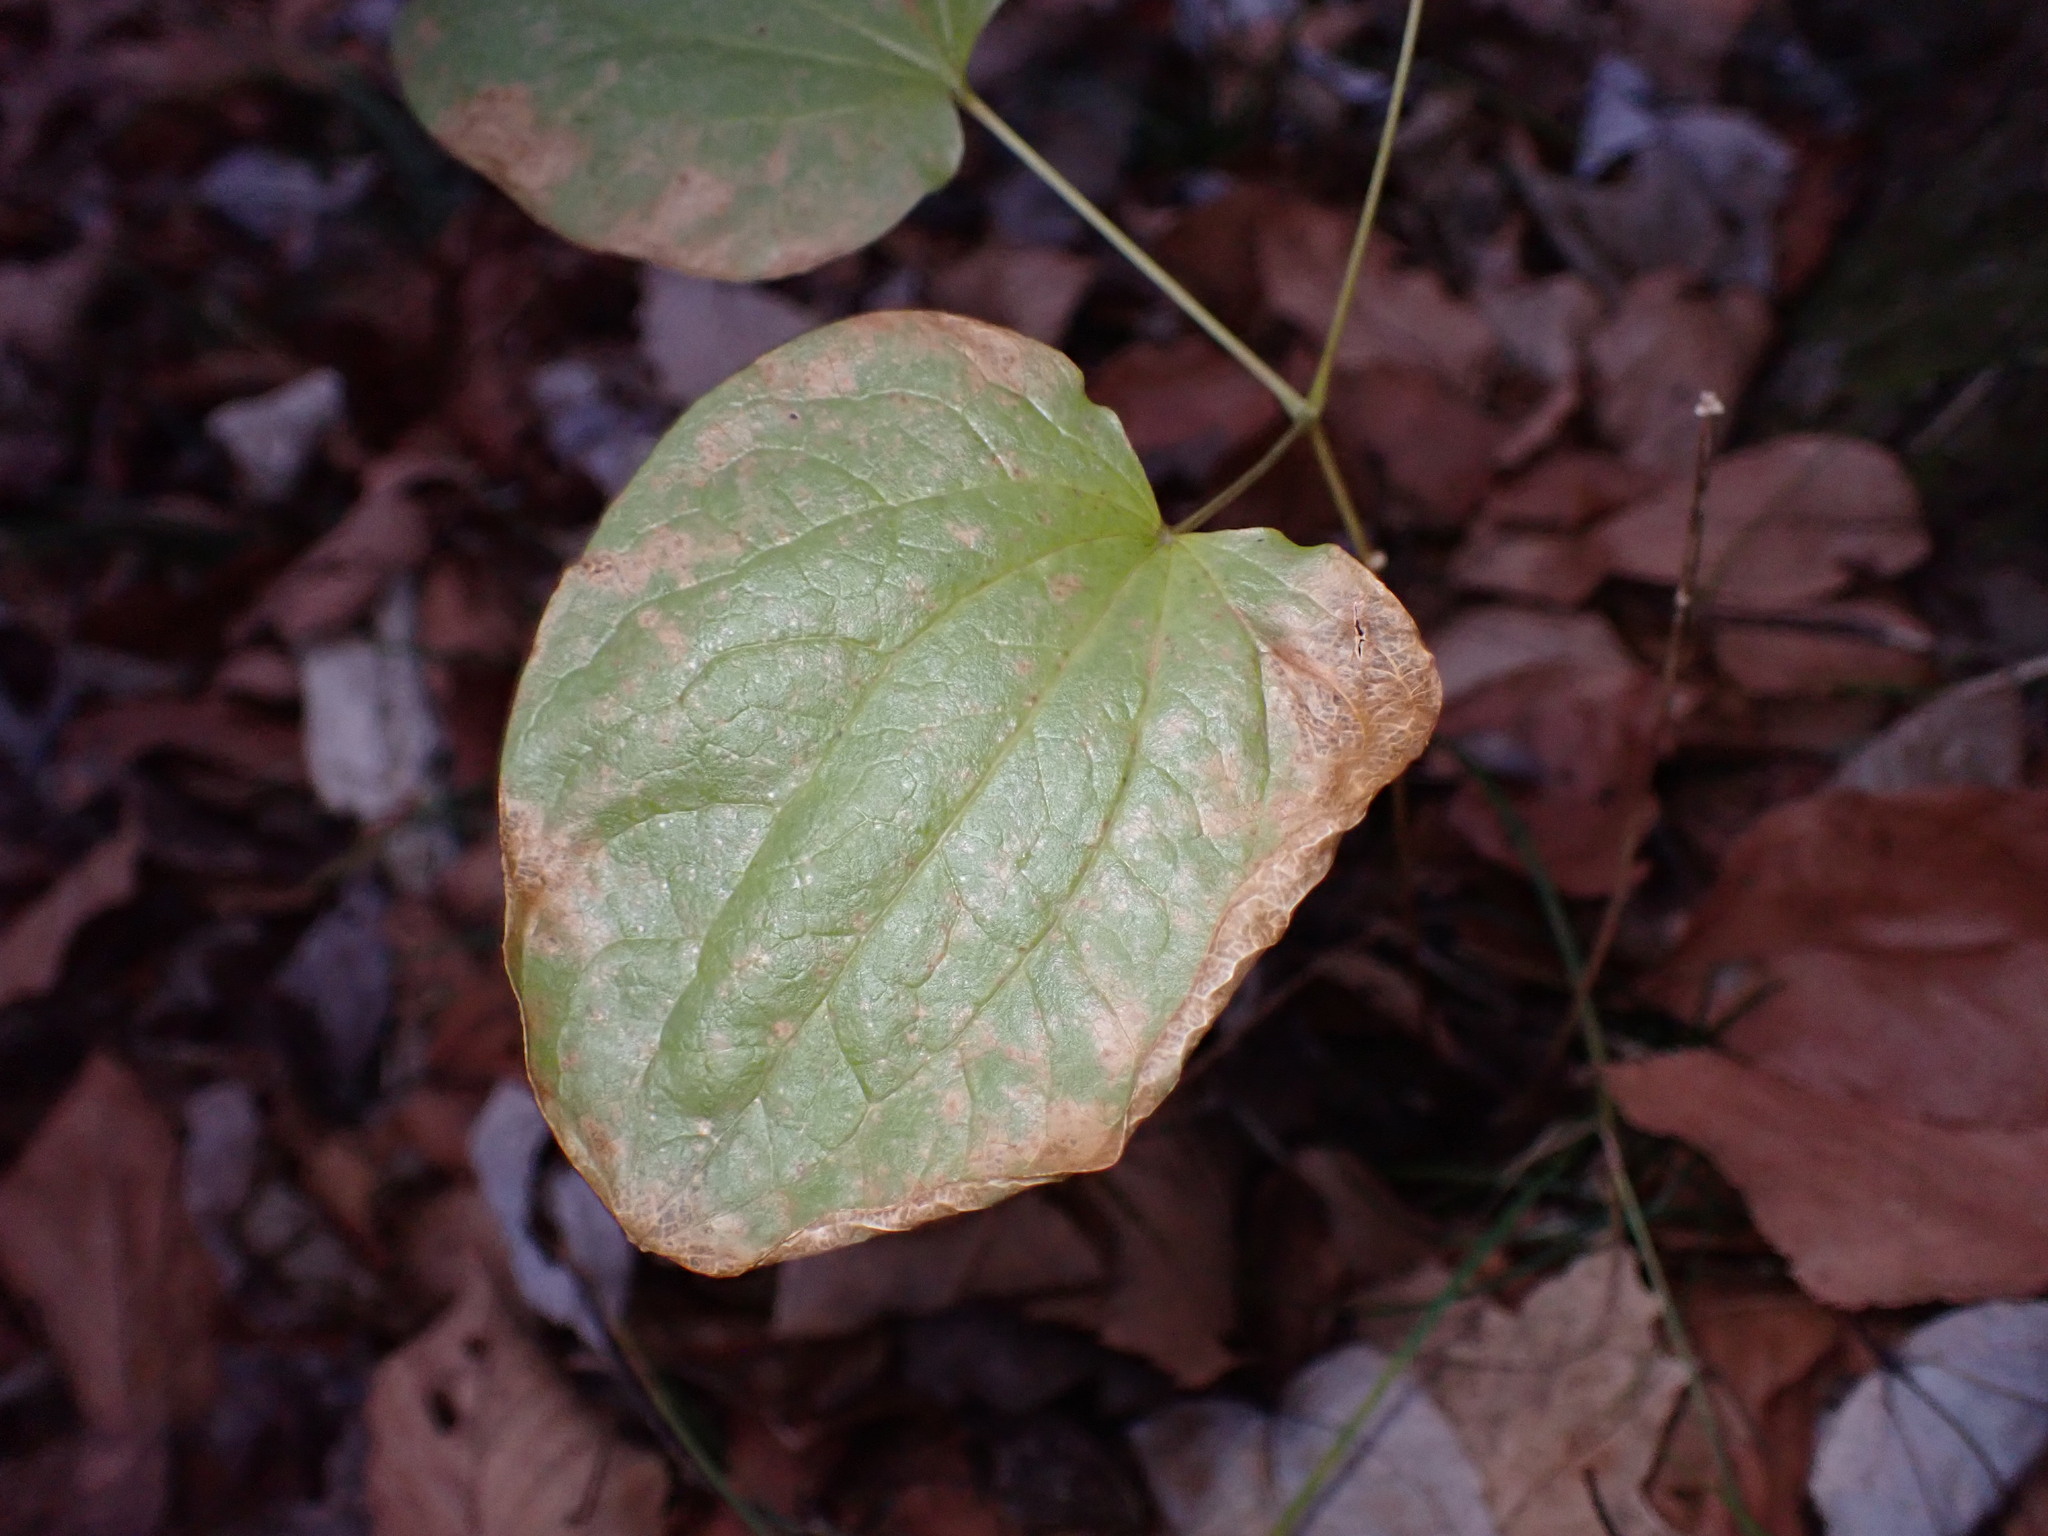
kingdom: Plantae
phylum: Tracheophyta
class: Liliopsida
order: Liliales
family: Smilacaceae
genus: Smilax
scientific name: Smilax herbacea
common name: Jacob's-ladder
